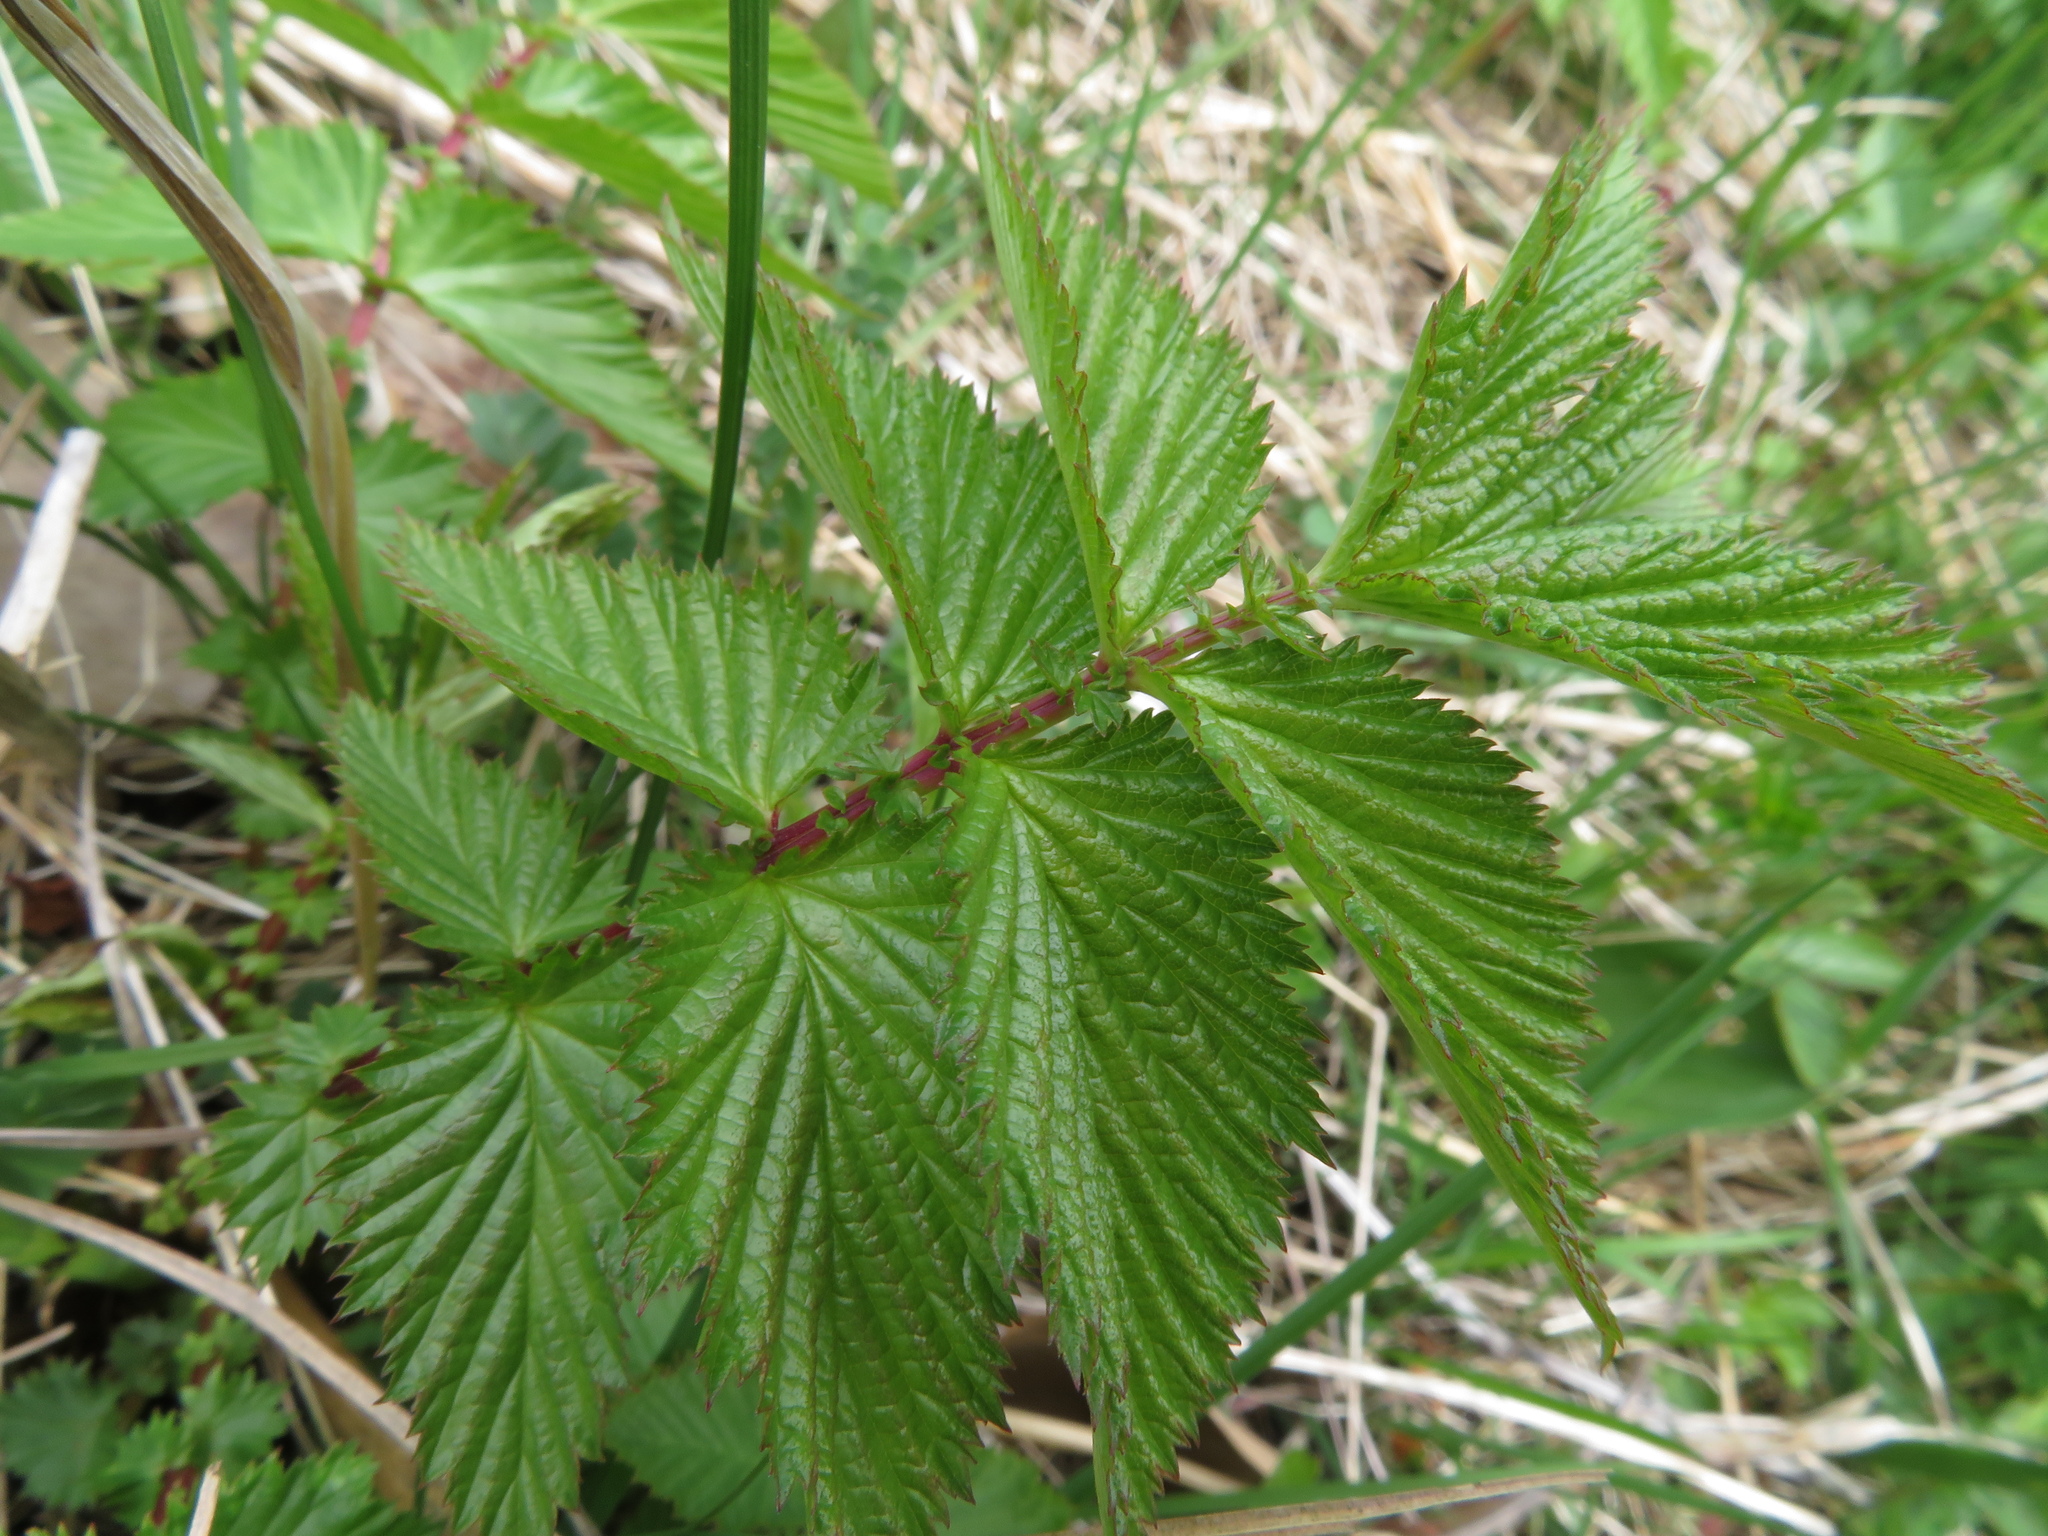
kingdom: Plantae
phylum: Tracheophyta
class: Magnoliopsida
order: Rosales
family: Rosaceae
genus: Filipendula
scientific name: Filipendula ulmaria
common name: Meadowsweet
